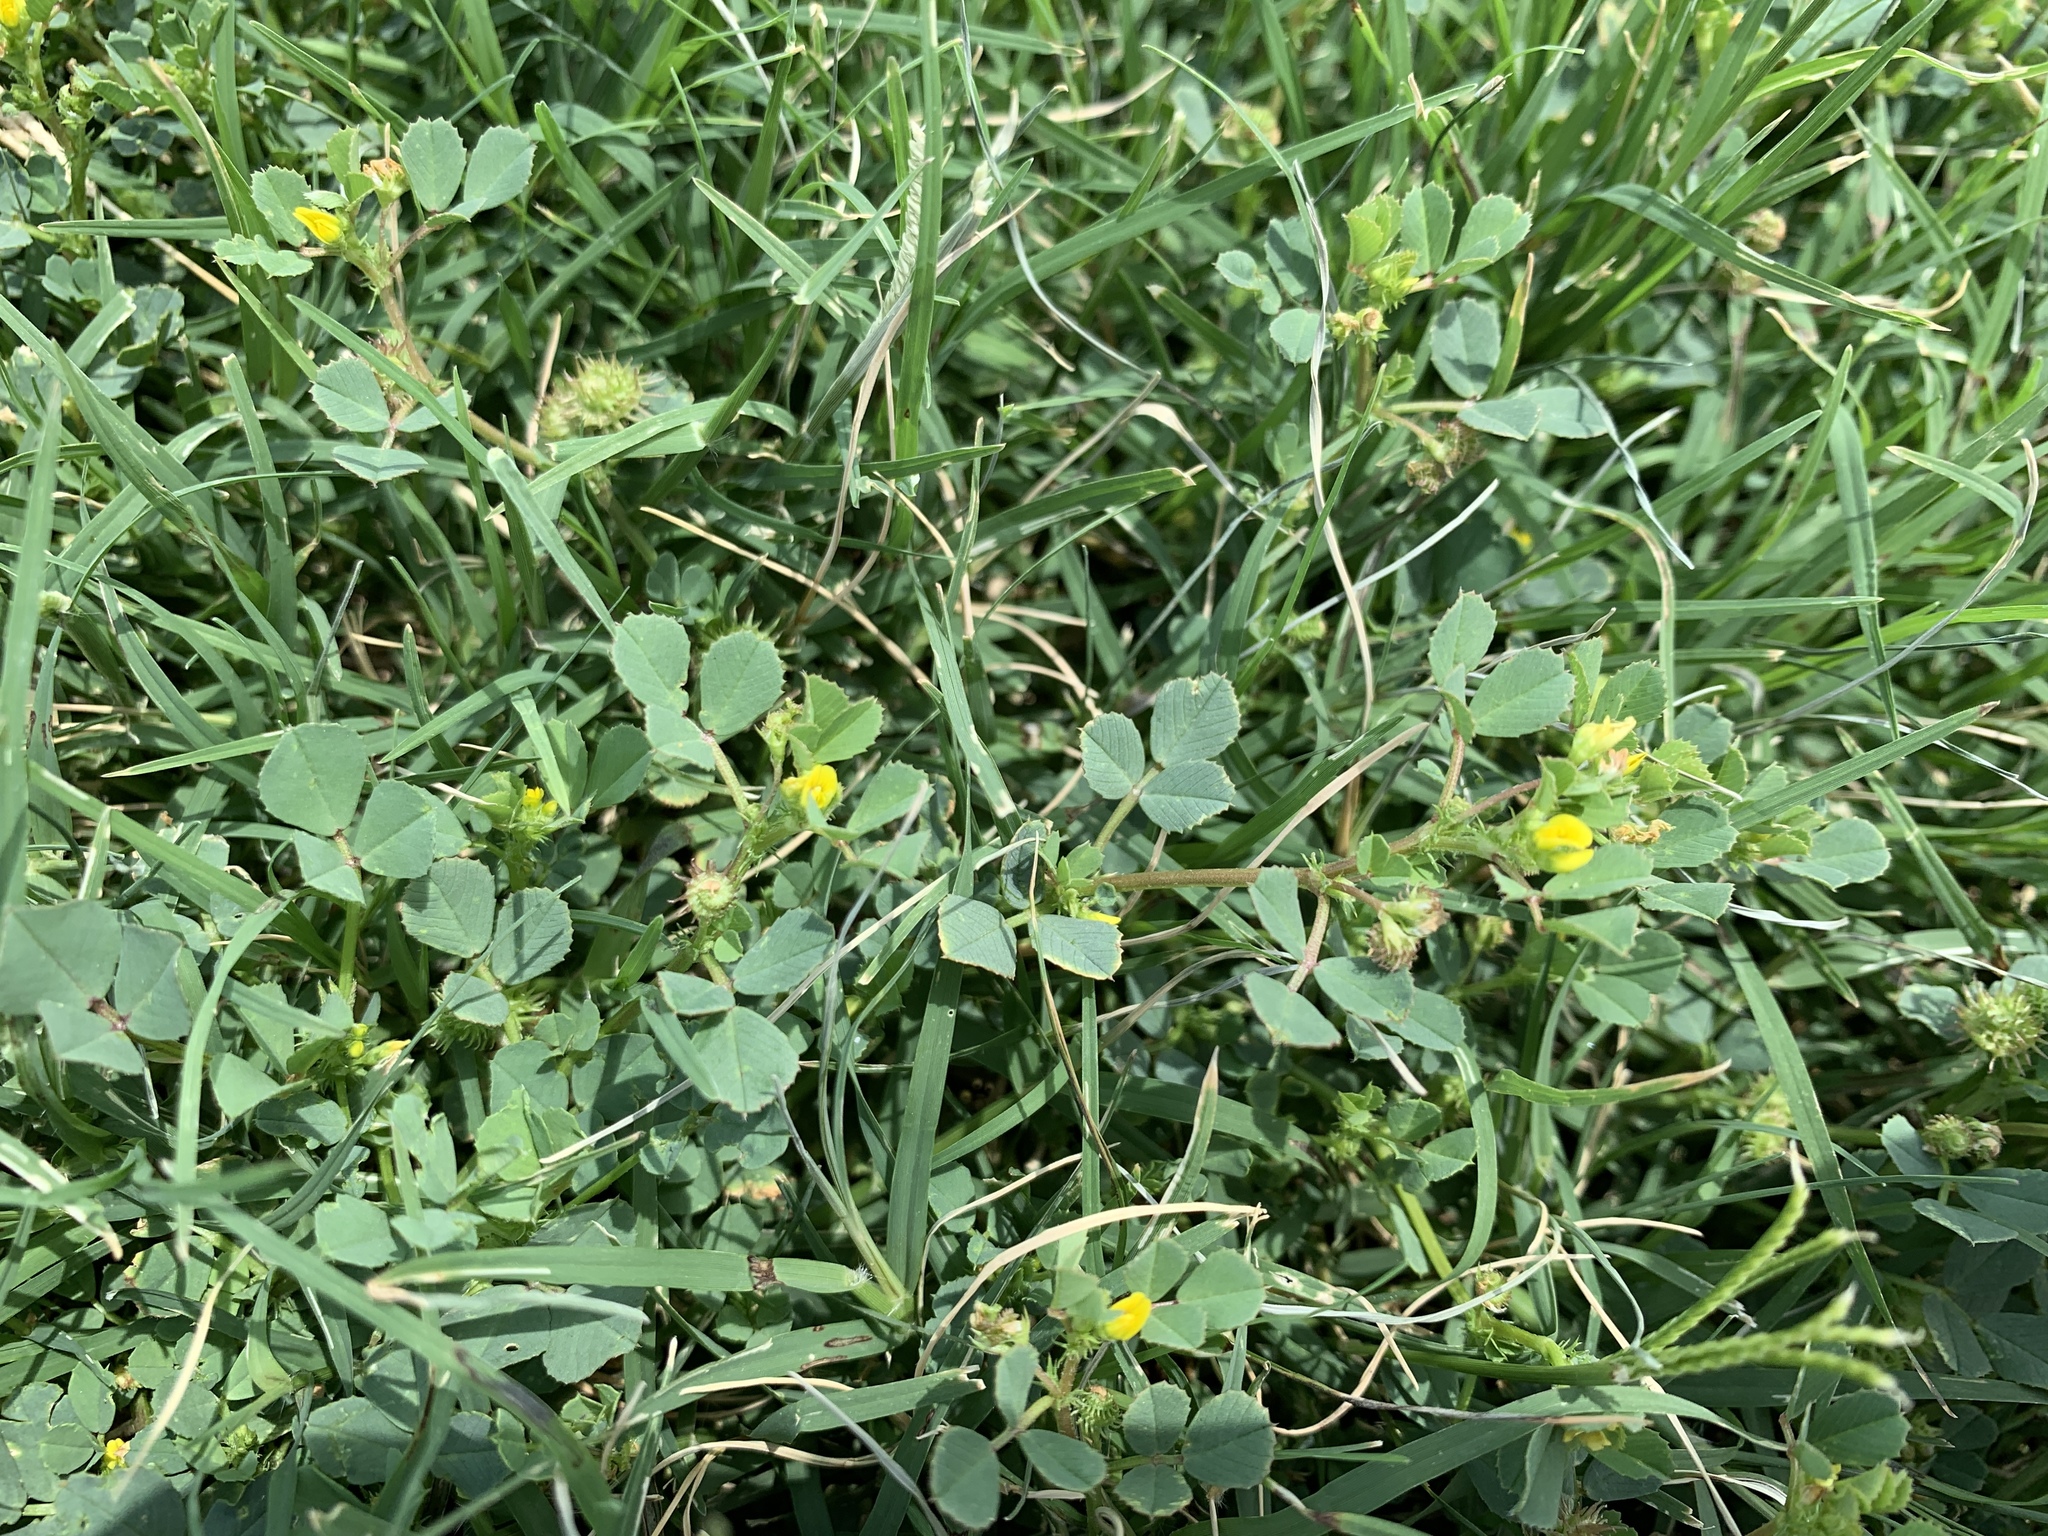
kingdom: Plantae
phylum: Tracheophyta
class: Magnoliopsida
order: Fabales
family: Fabaceae
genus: Medicago
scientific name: Medicago polymorpha
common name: Burclover
